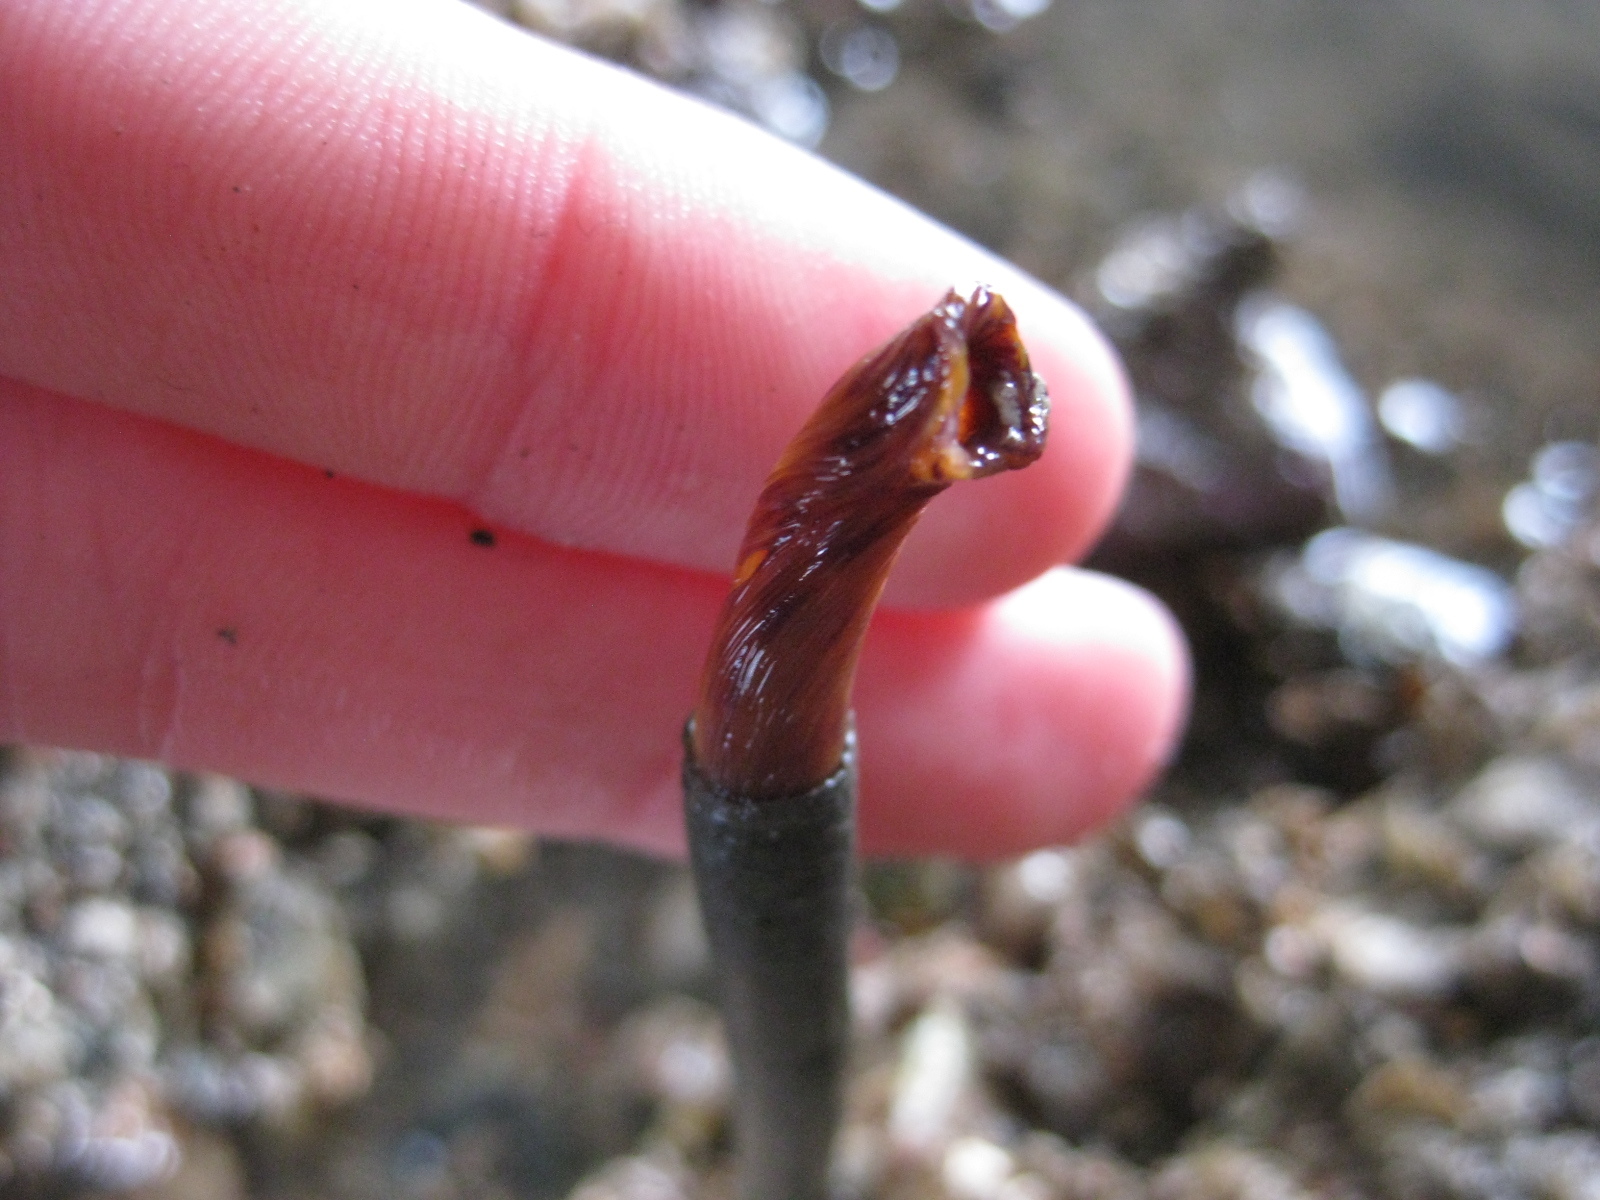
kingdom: Animalia
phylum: Annelida
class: Polychaeta
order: Sabellida
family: Sabellidae
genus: Sabella
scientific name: Sabella spallanzanii
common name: Feather duster worm
